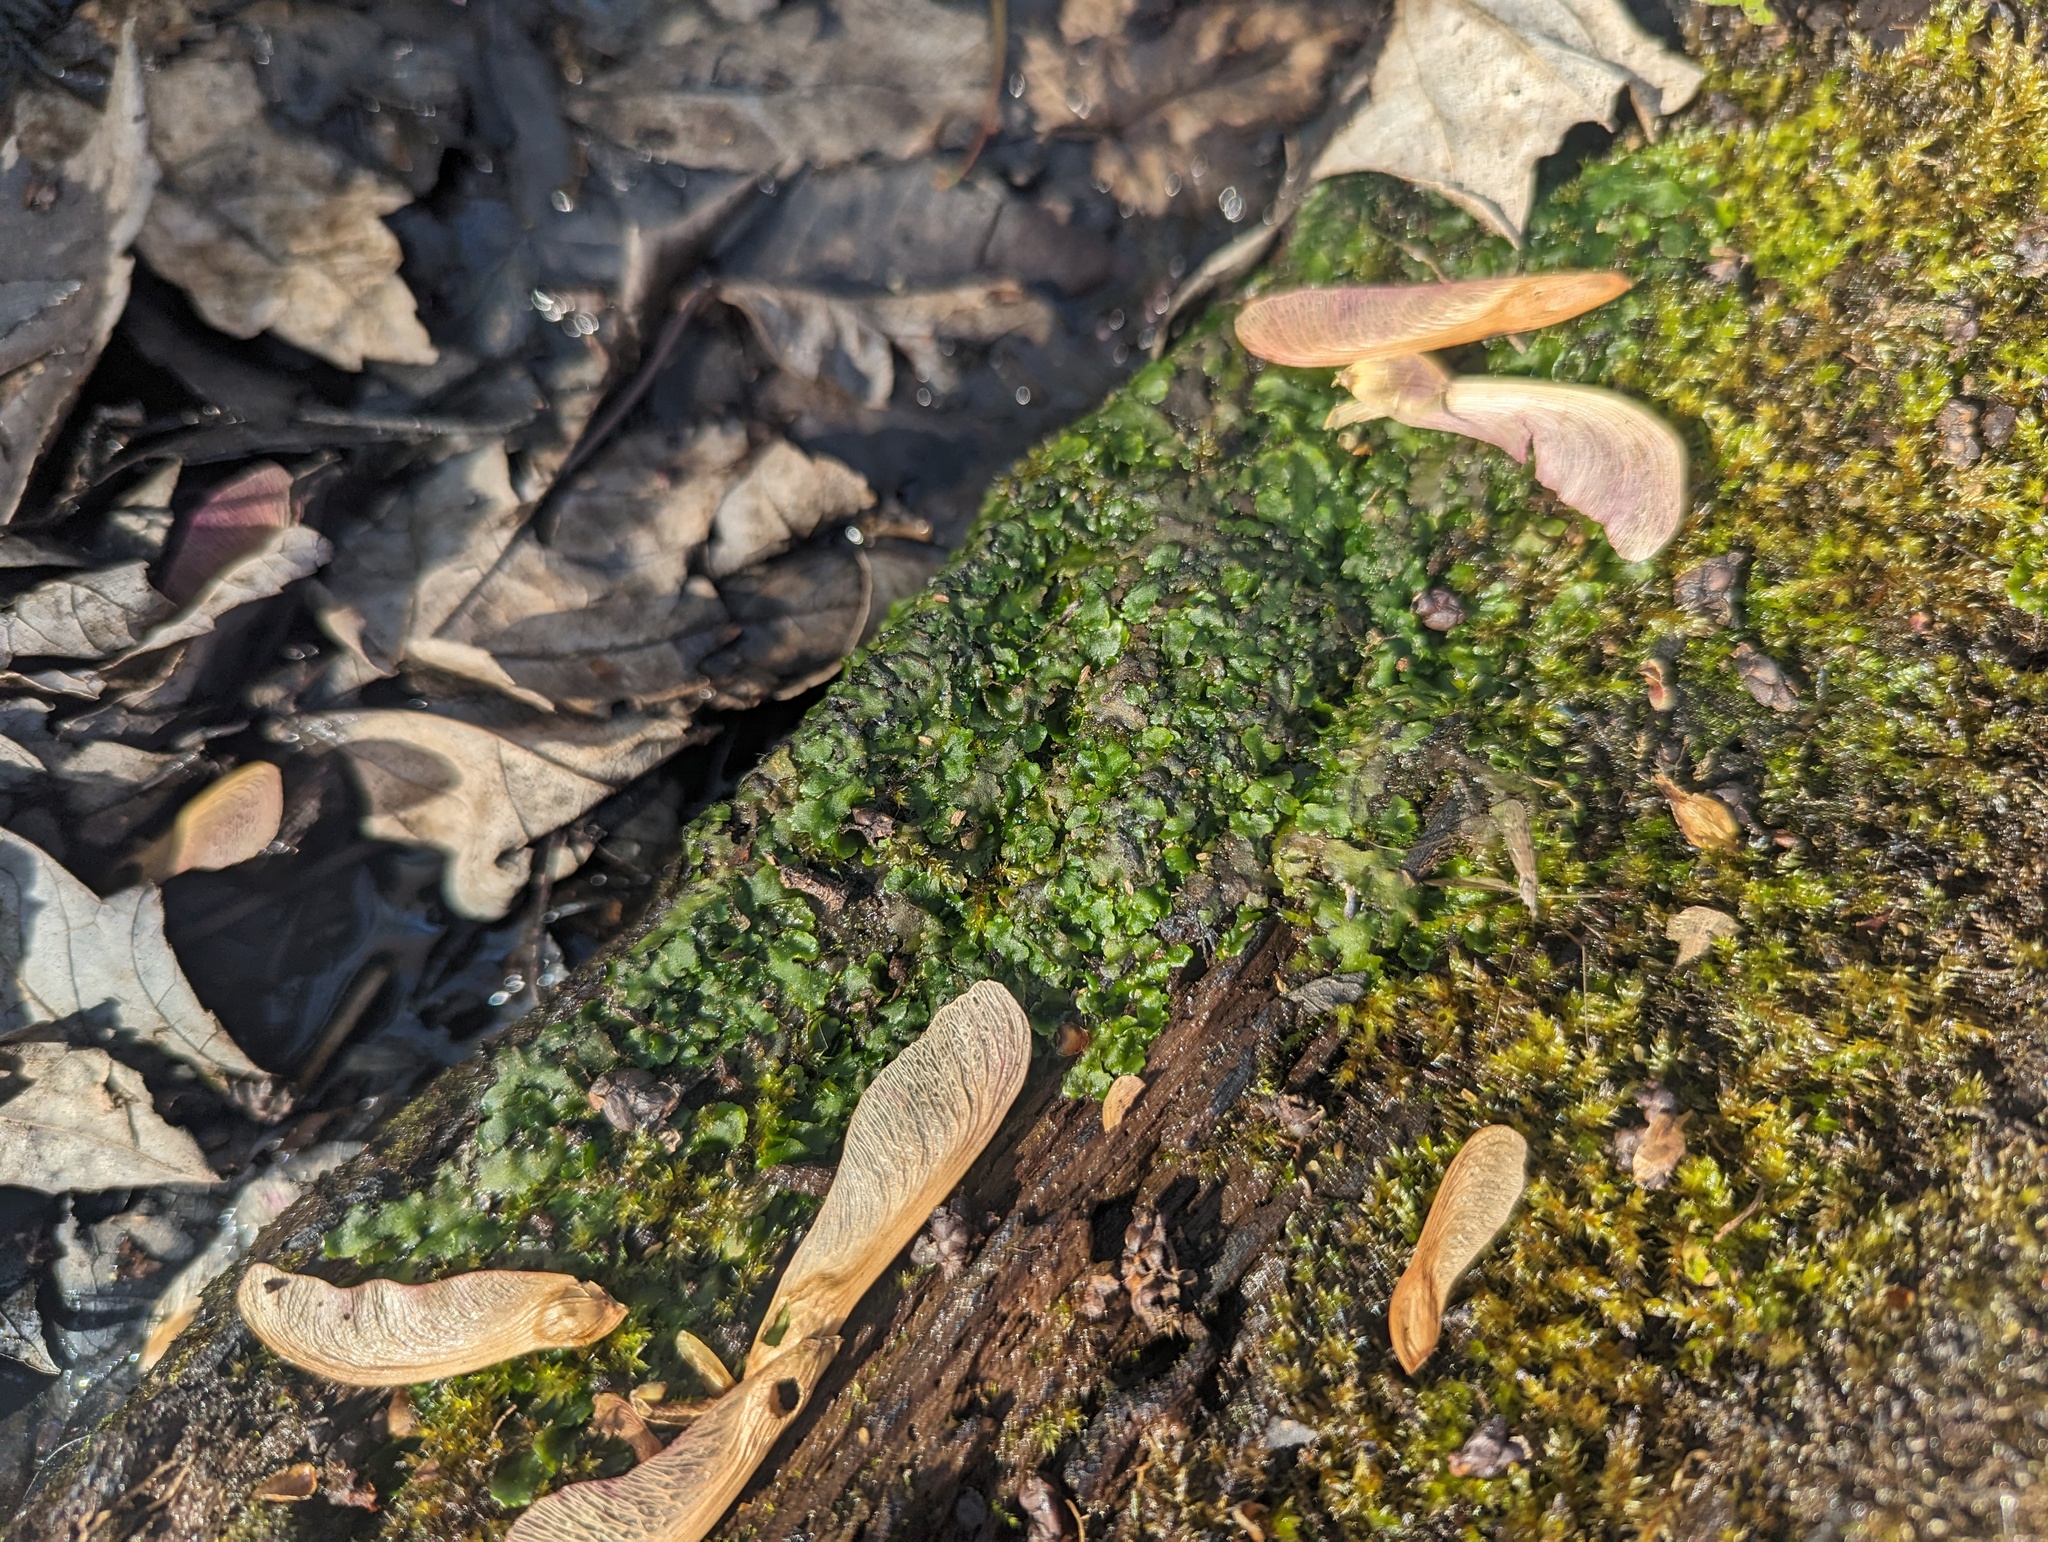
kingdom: Plantae
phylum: Marchantiophyta
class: Jungermanniopsida
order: Metzgeriales
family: Aneuraceae
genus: Aneura
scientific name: Aneura pinguis
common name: Common greasewort
